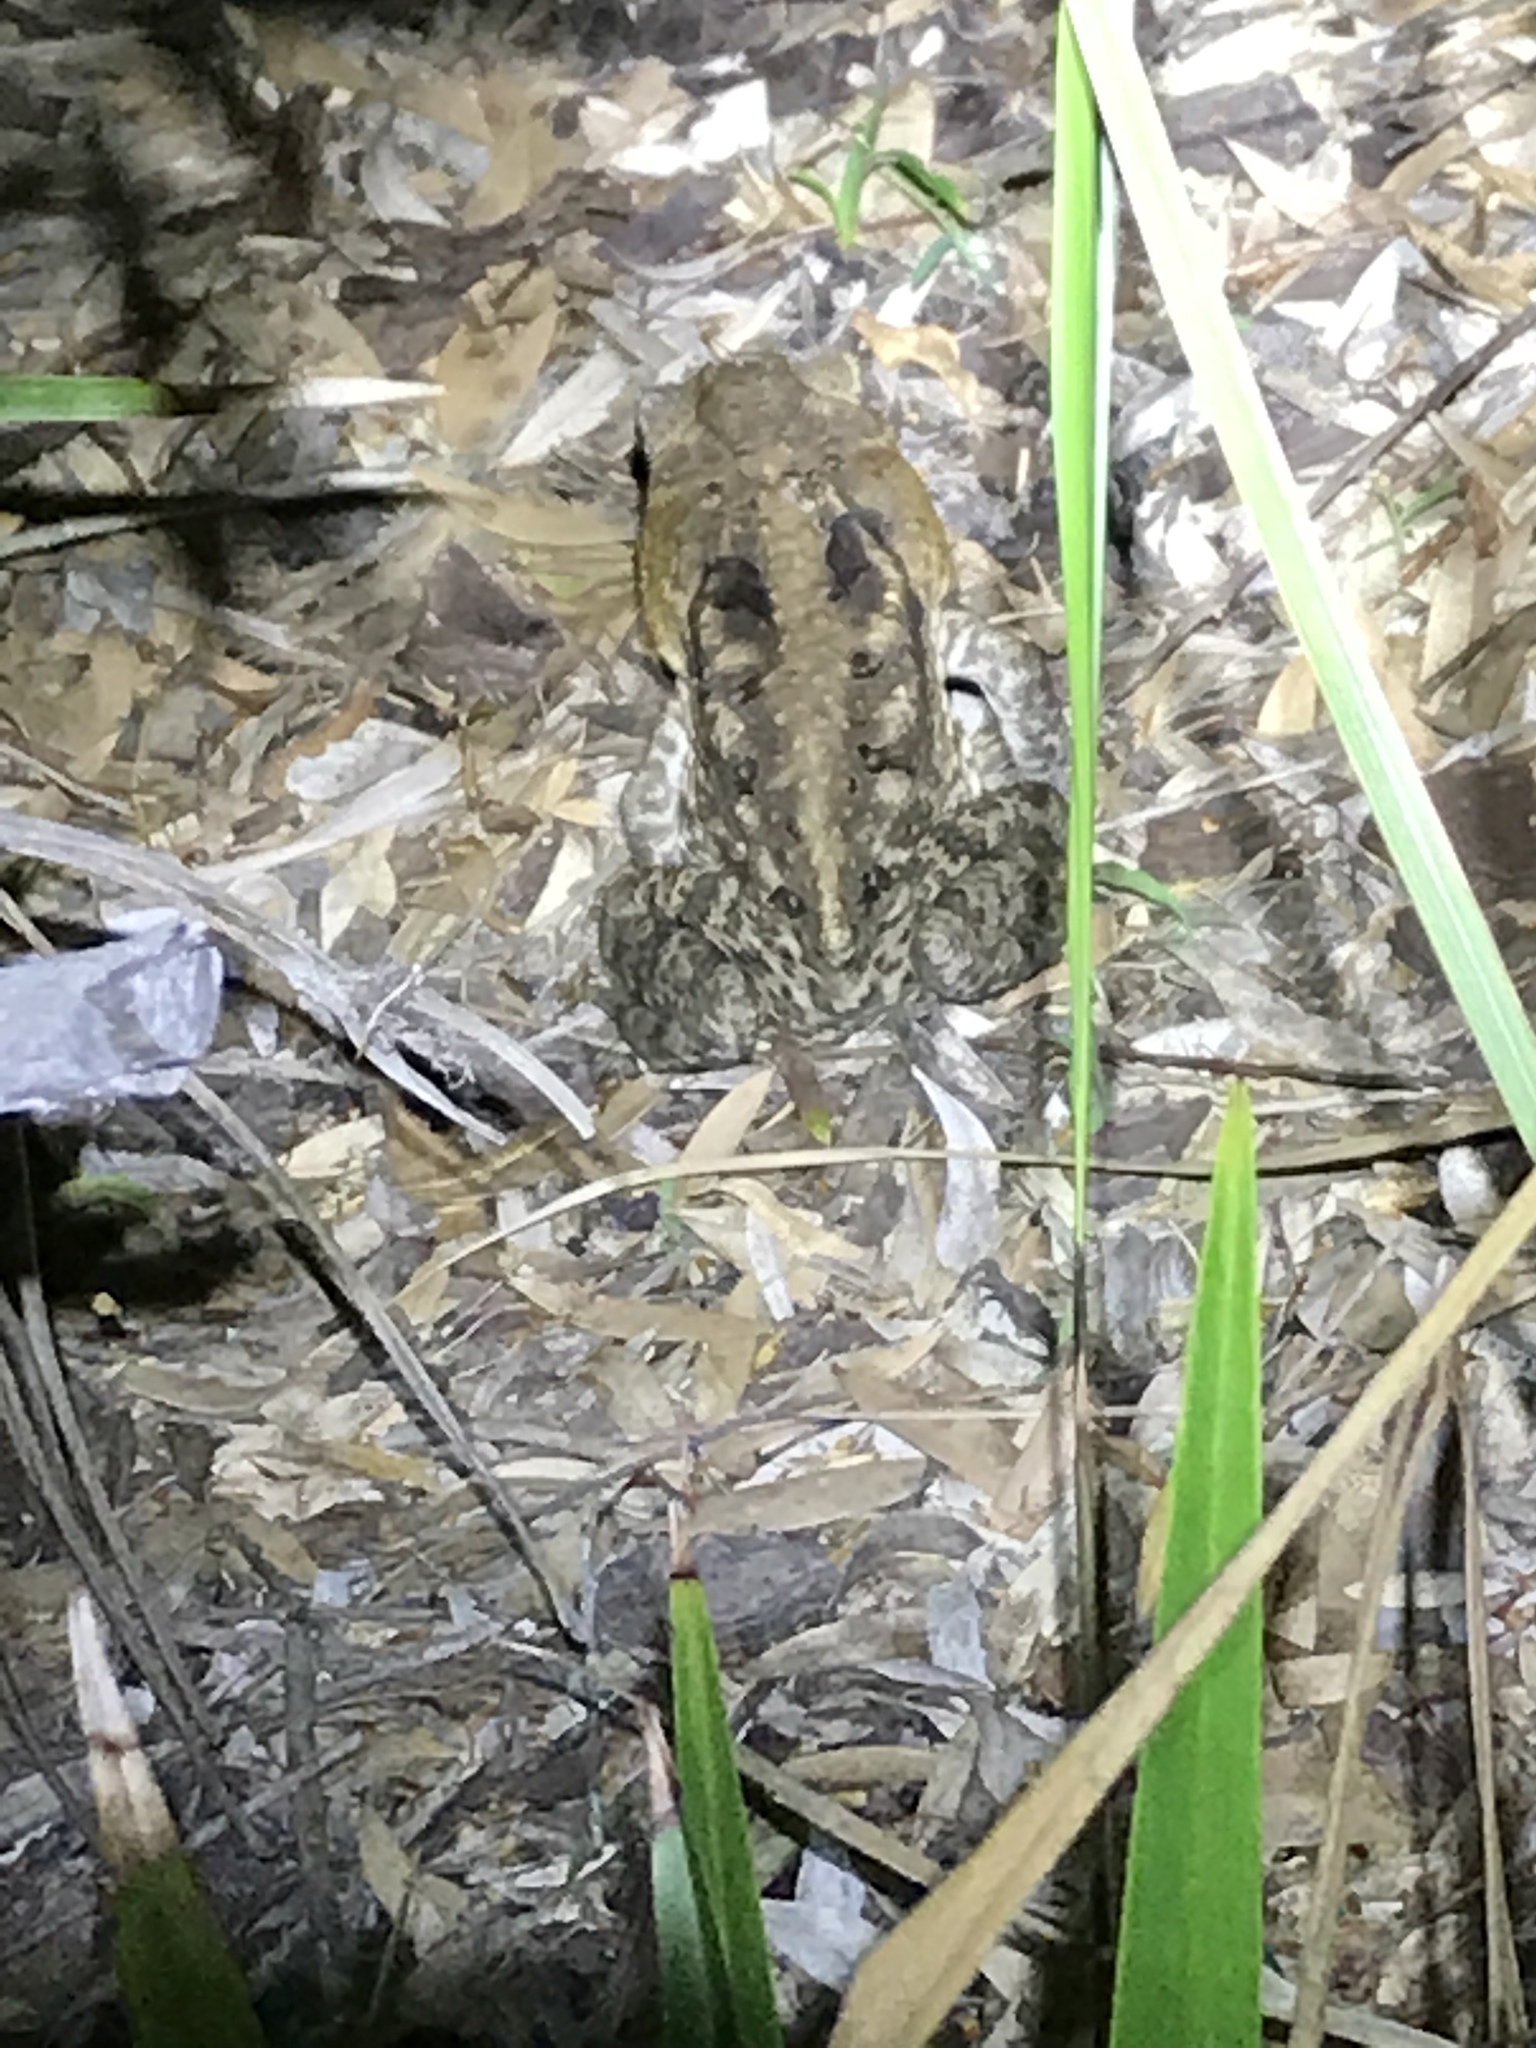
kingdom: Animalia
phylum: Chordata
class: Amphibia
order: Anura
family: Bufonidae
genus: Rhinella
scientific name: Rhinella marina
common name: Cane toad
